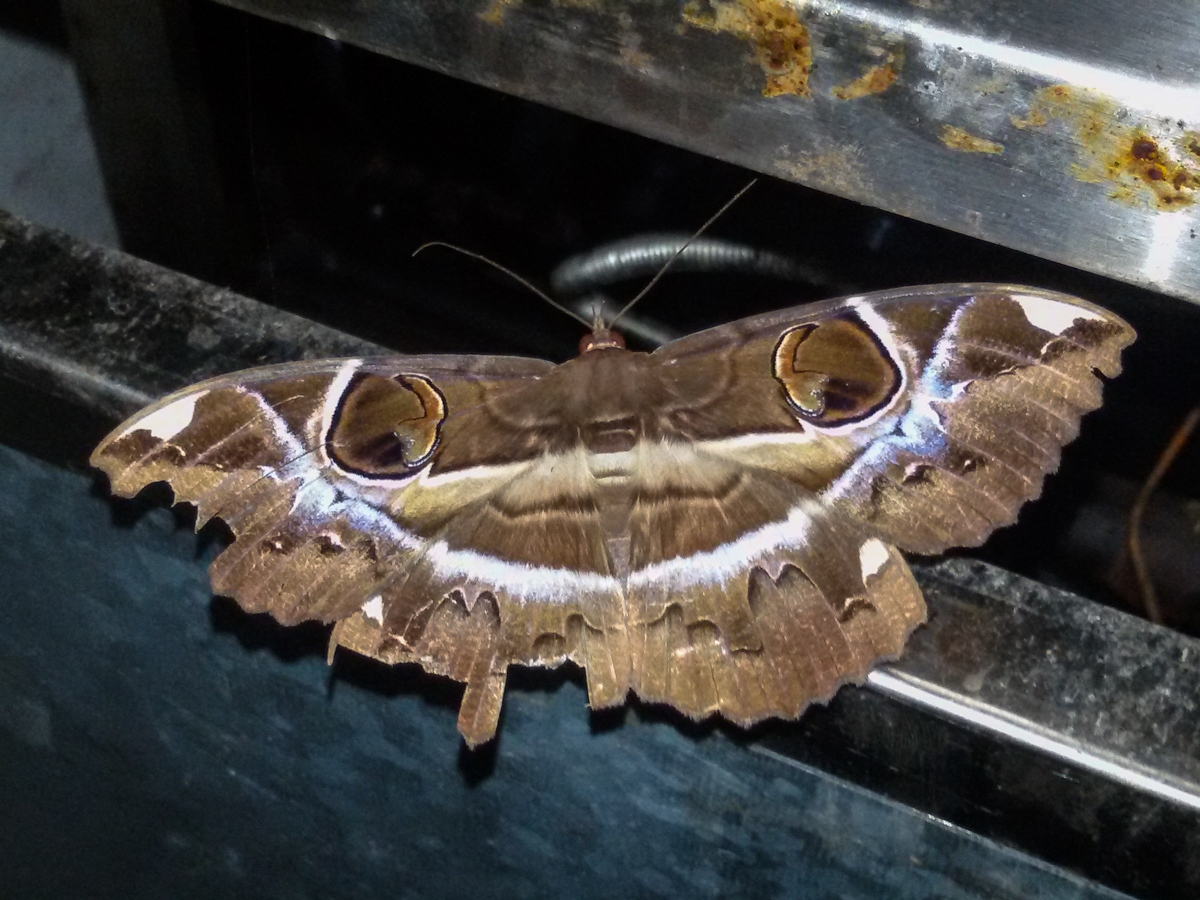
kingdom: Animalia
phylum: Arthropoda
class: Insecta
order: Lepidoptera
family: Erebidae
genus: Erebus
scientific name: Erebus ephesperis
